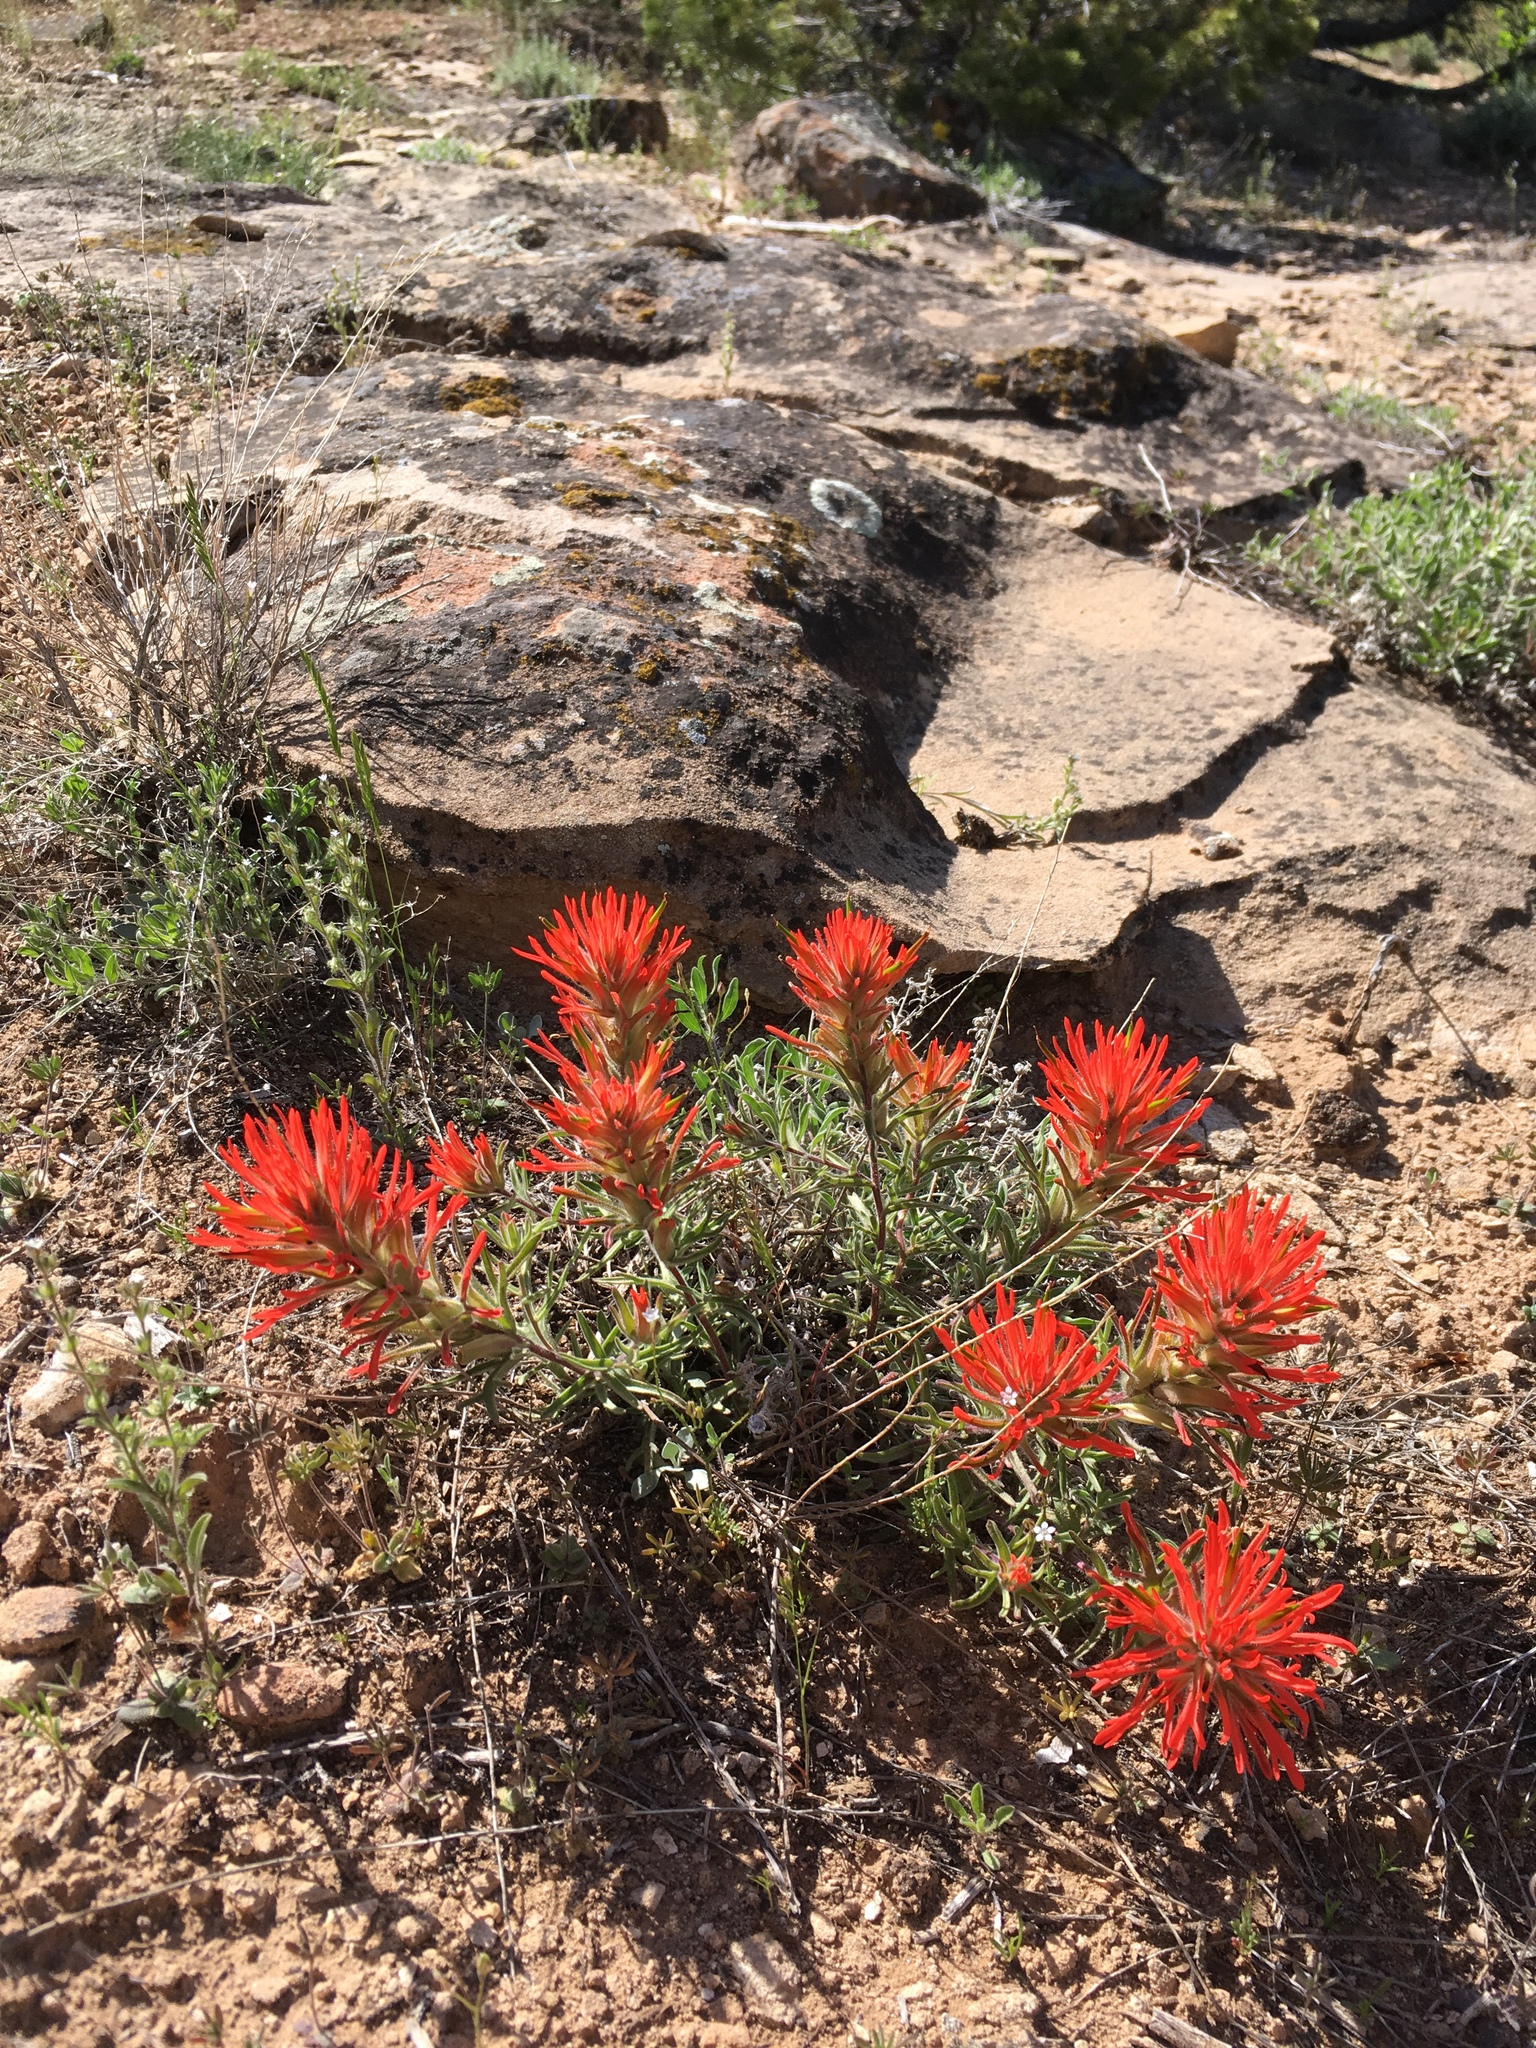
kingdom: Plantae
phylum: Tracheophyta
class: Magnoliopsida
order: Lamiales
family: Orobanchaceae
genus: Castilleja
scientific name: Castilleja scabrida
